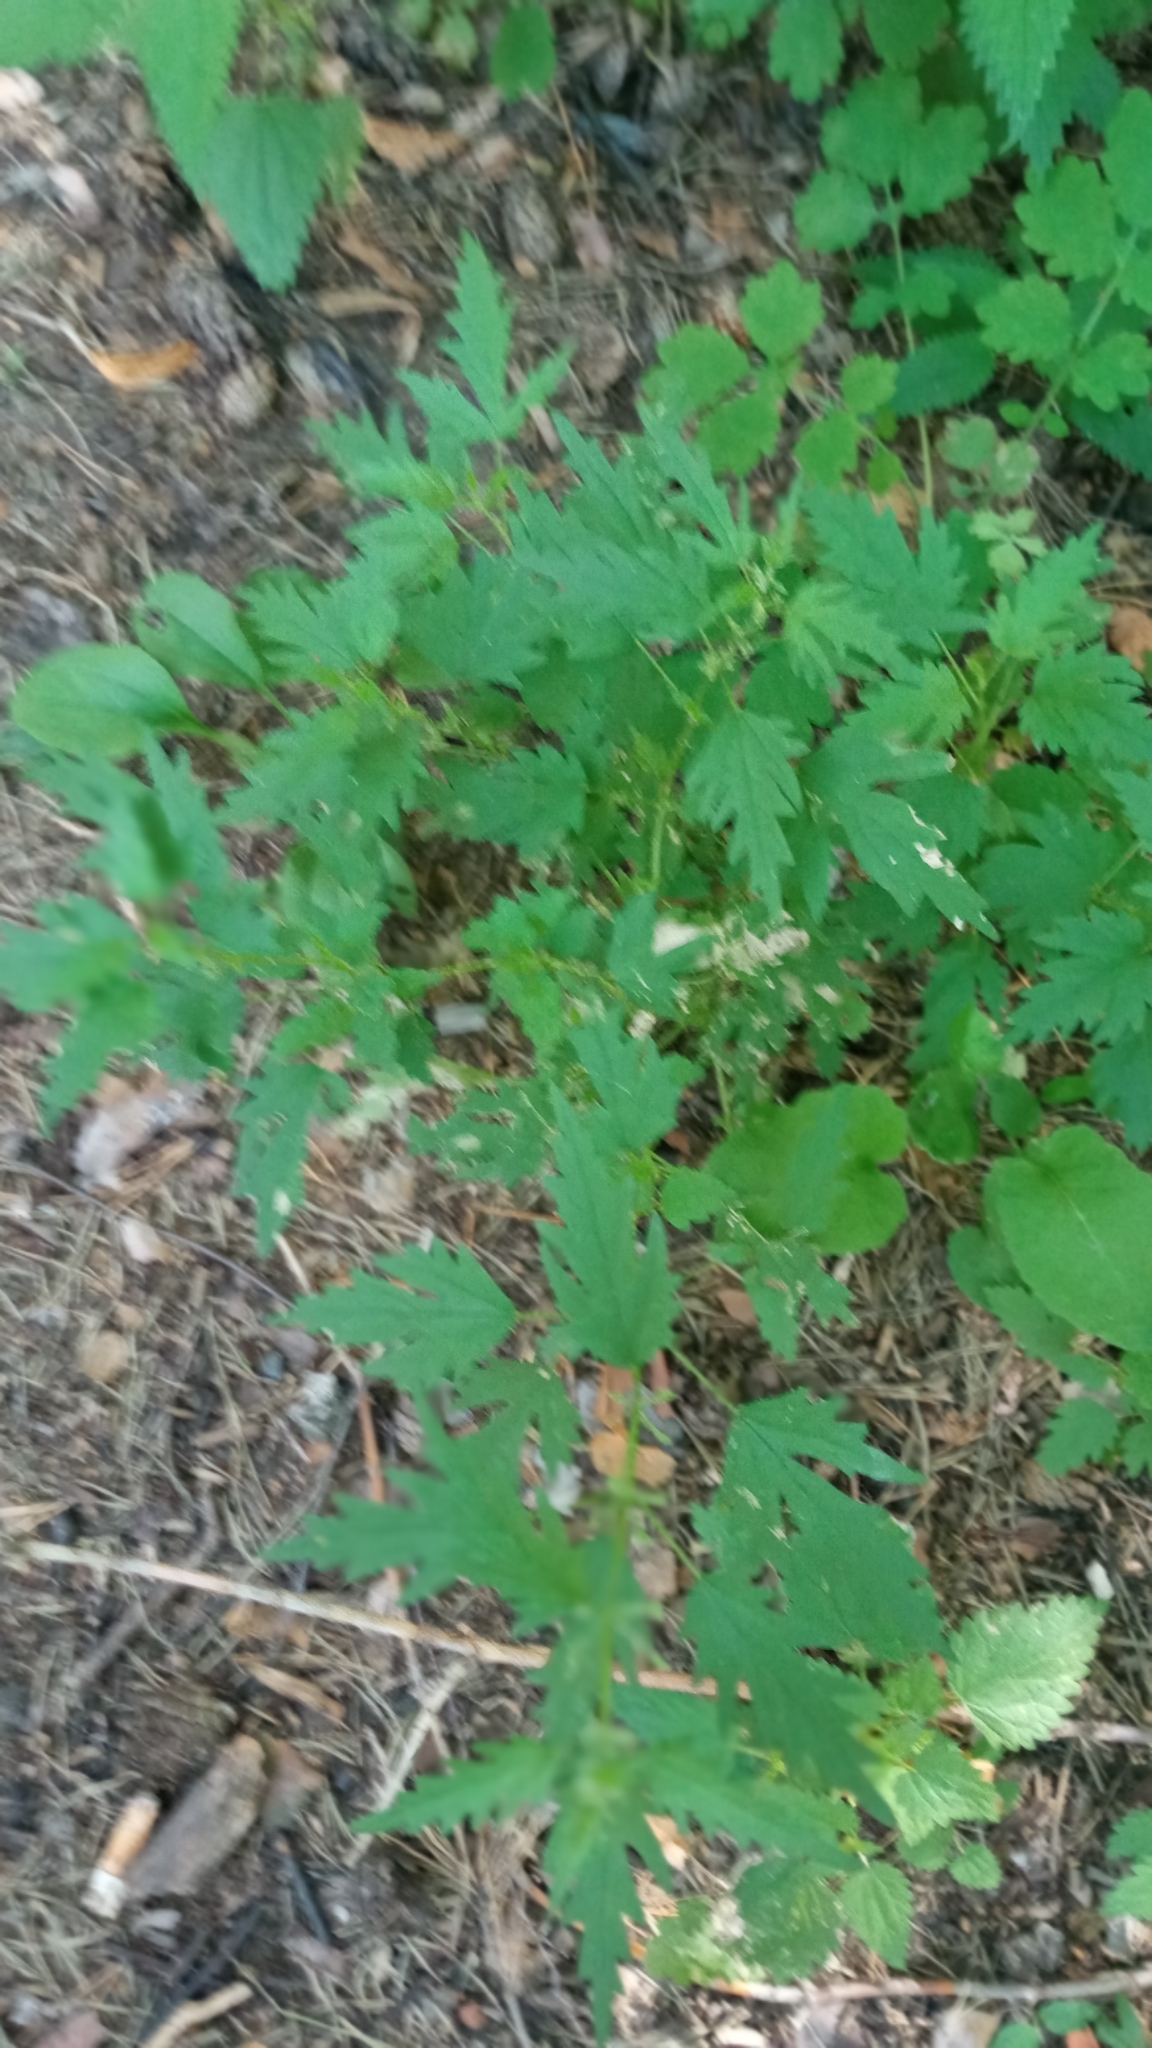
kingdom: Plantae
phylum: Tracheophyta
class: Magnoliopsida
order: Rosales
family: Urticaceae
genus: Urtica
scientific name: Urtica cannabina
